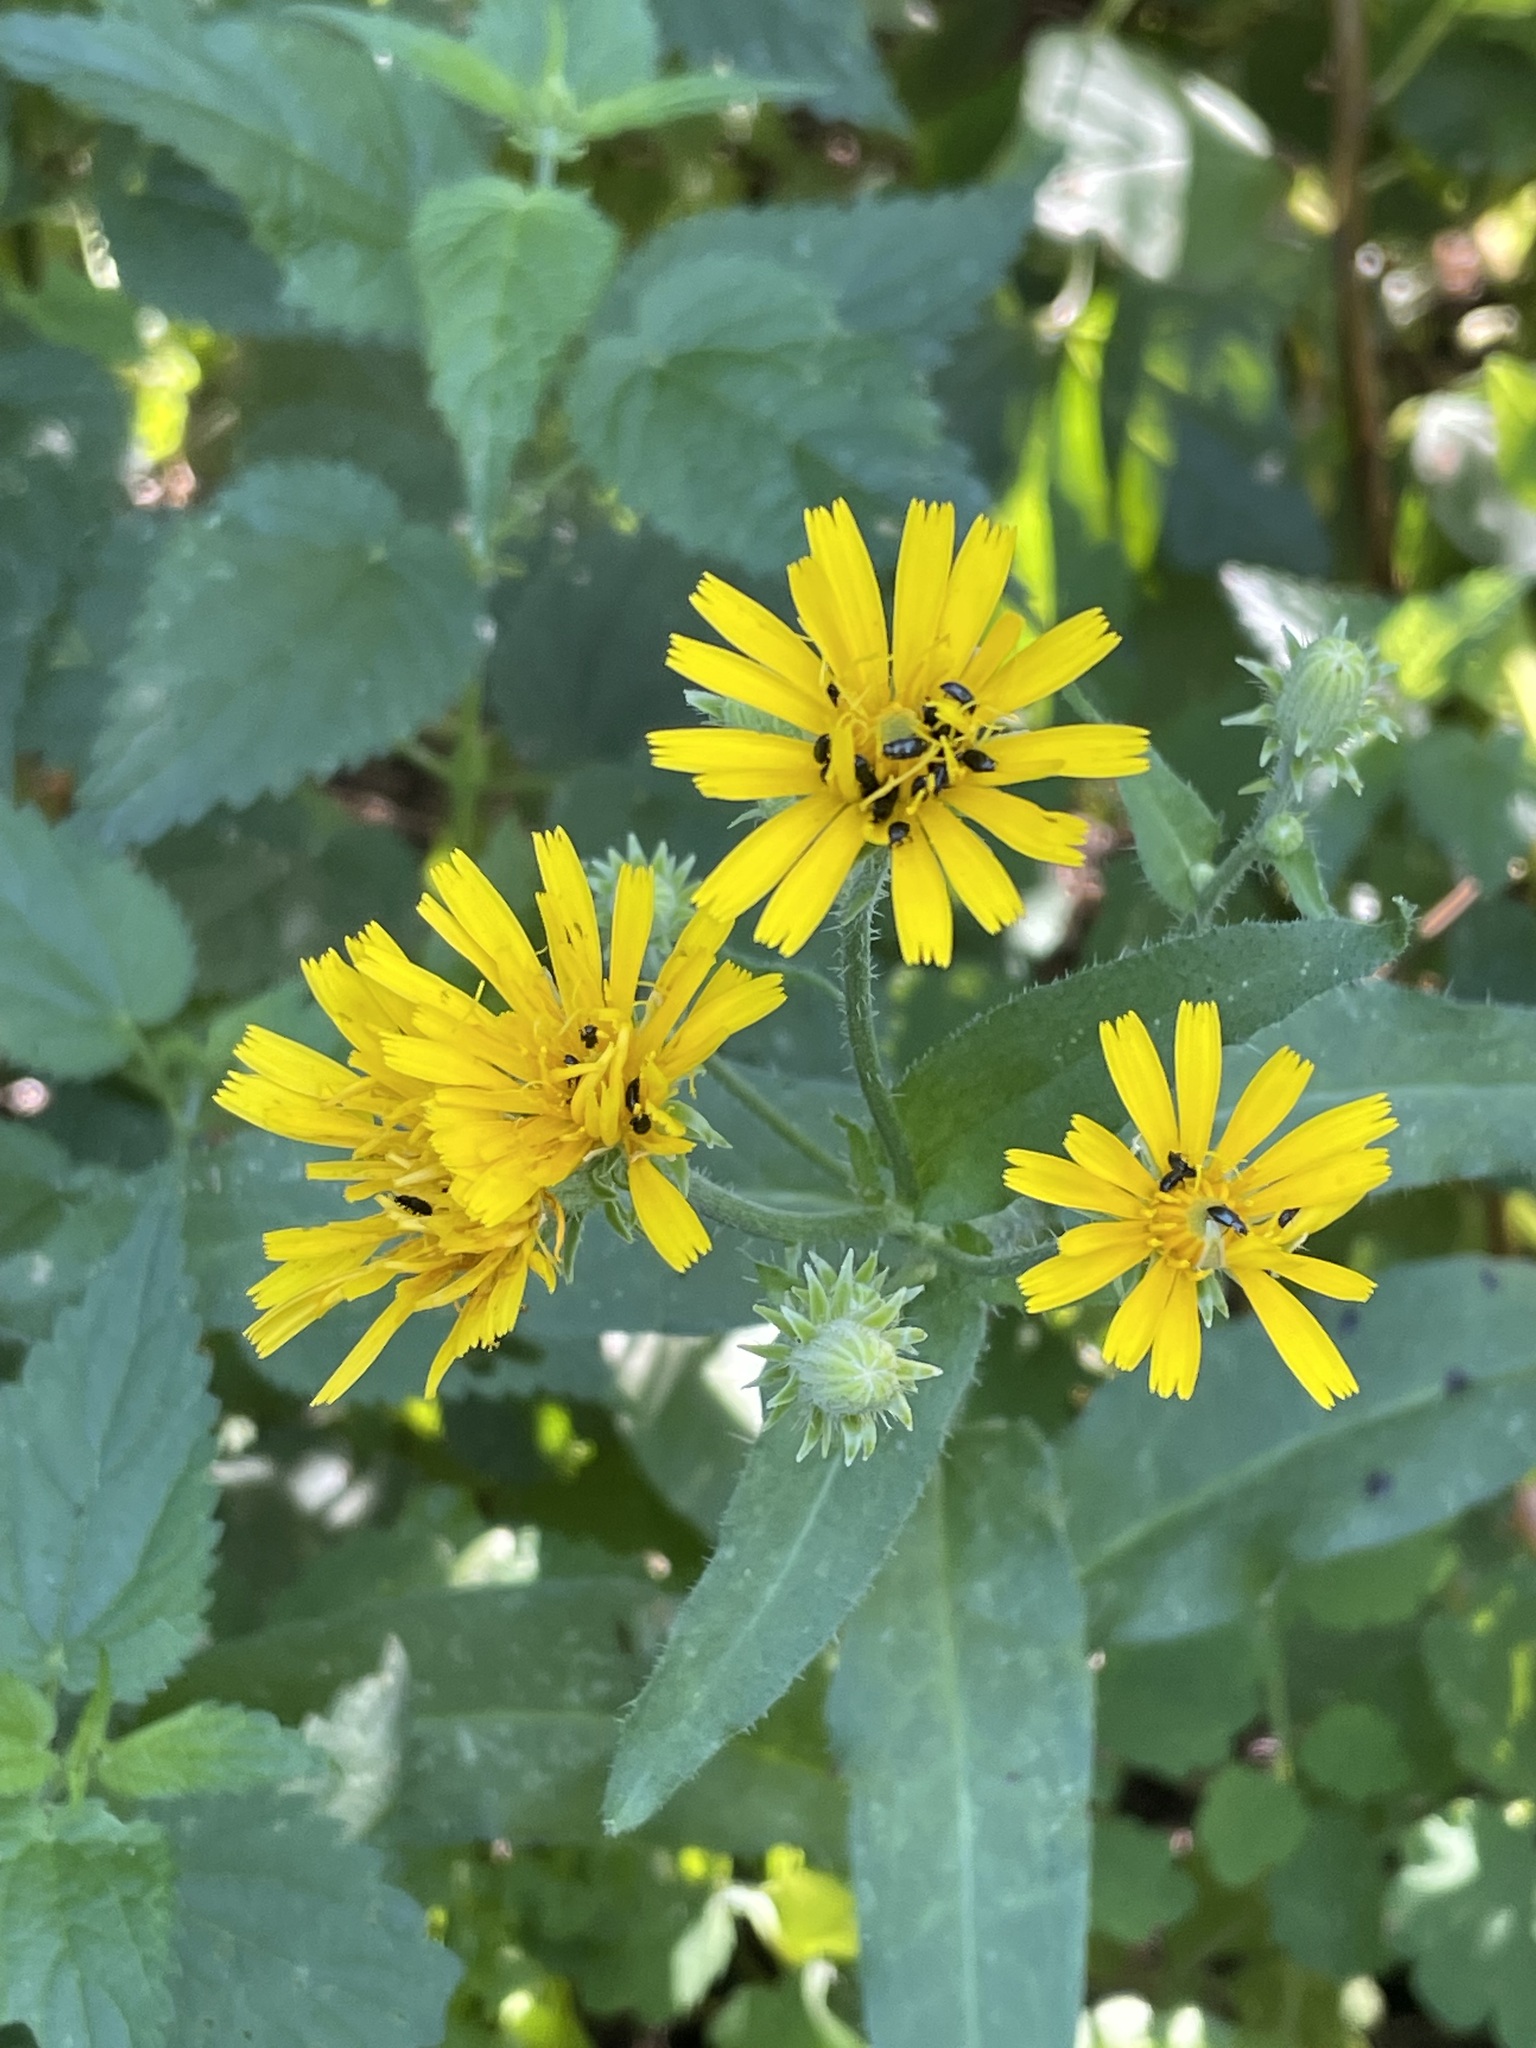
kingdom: Plantae
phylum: Tracheophyta
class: Magnoliopsida
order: Asterales
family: Asteraceae
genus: Picris
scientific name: Picris hieracioides
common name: Hawkweed oxtongue
